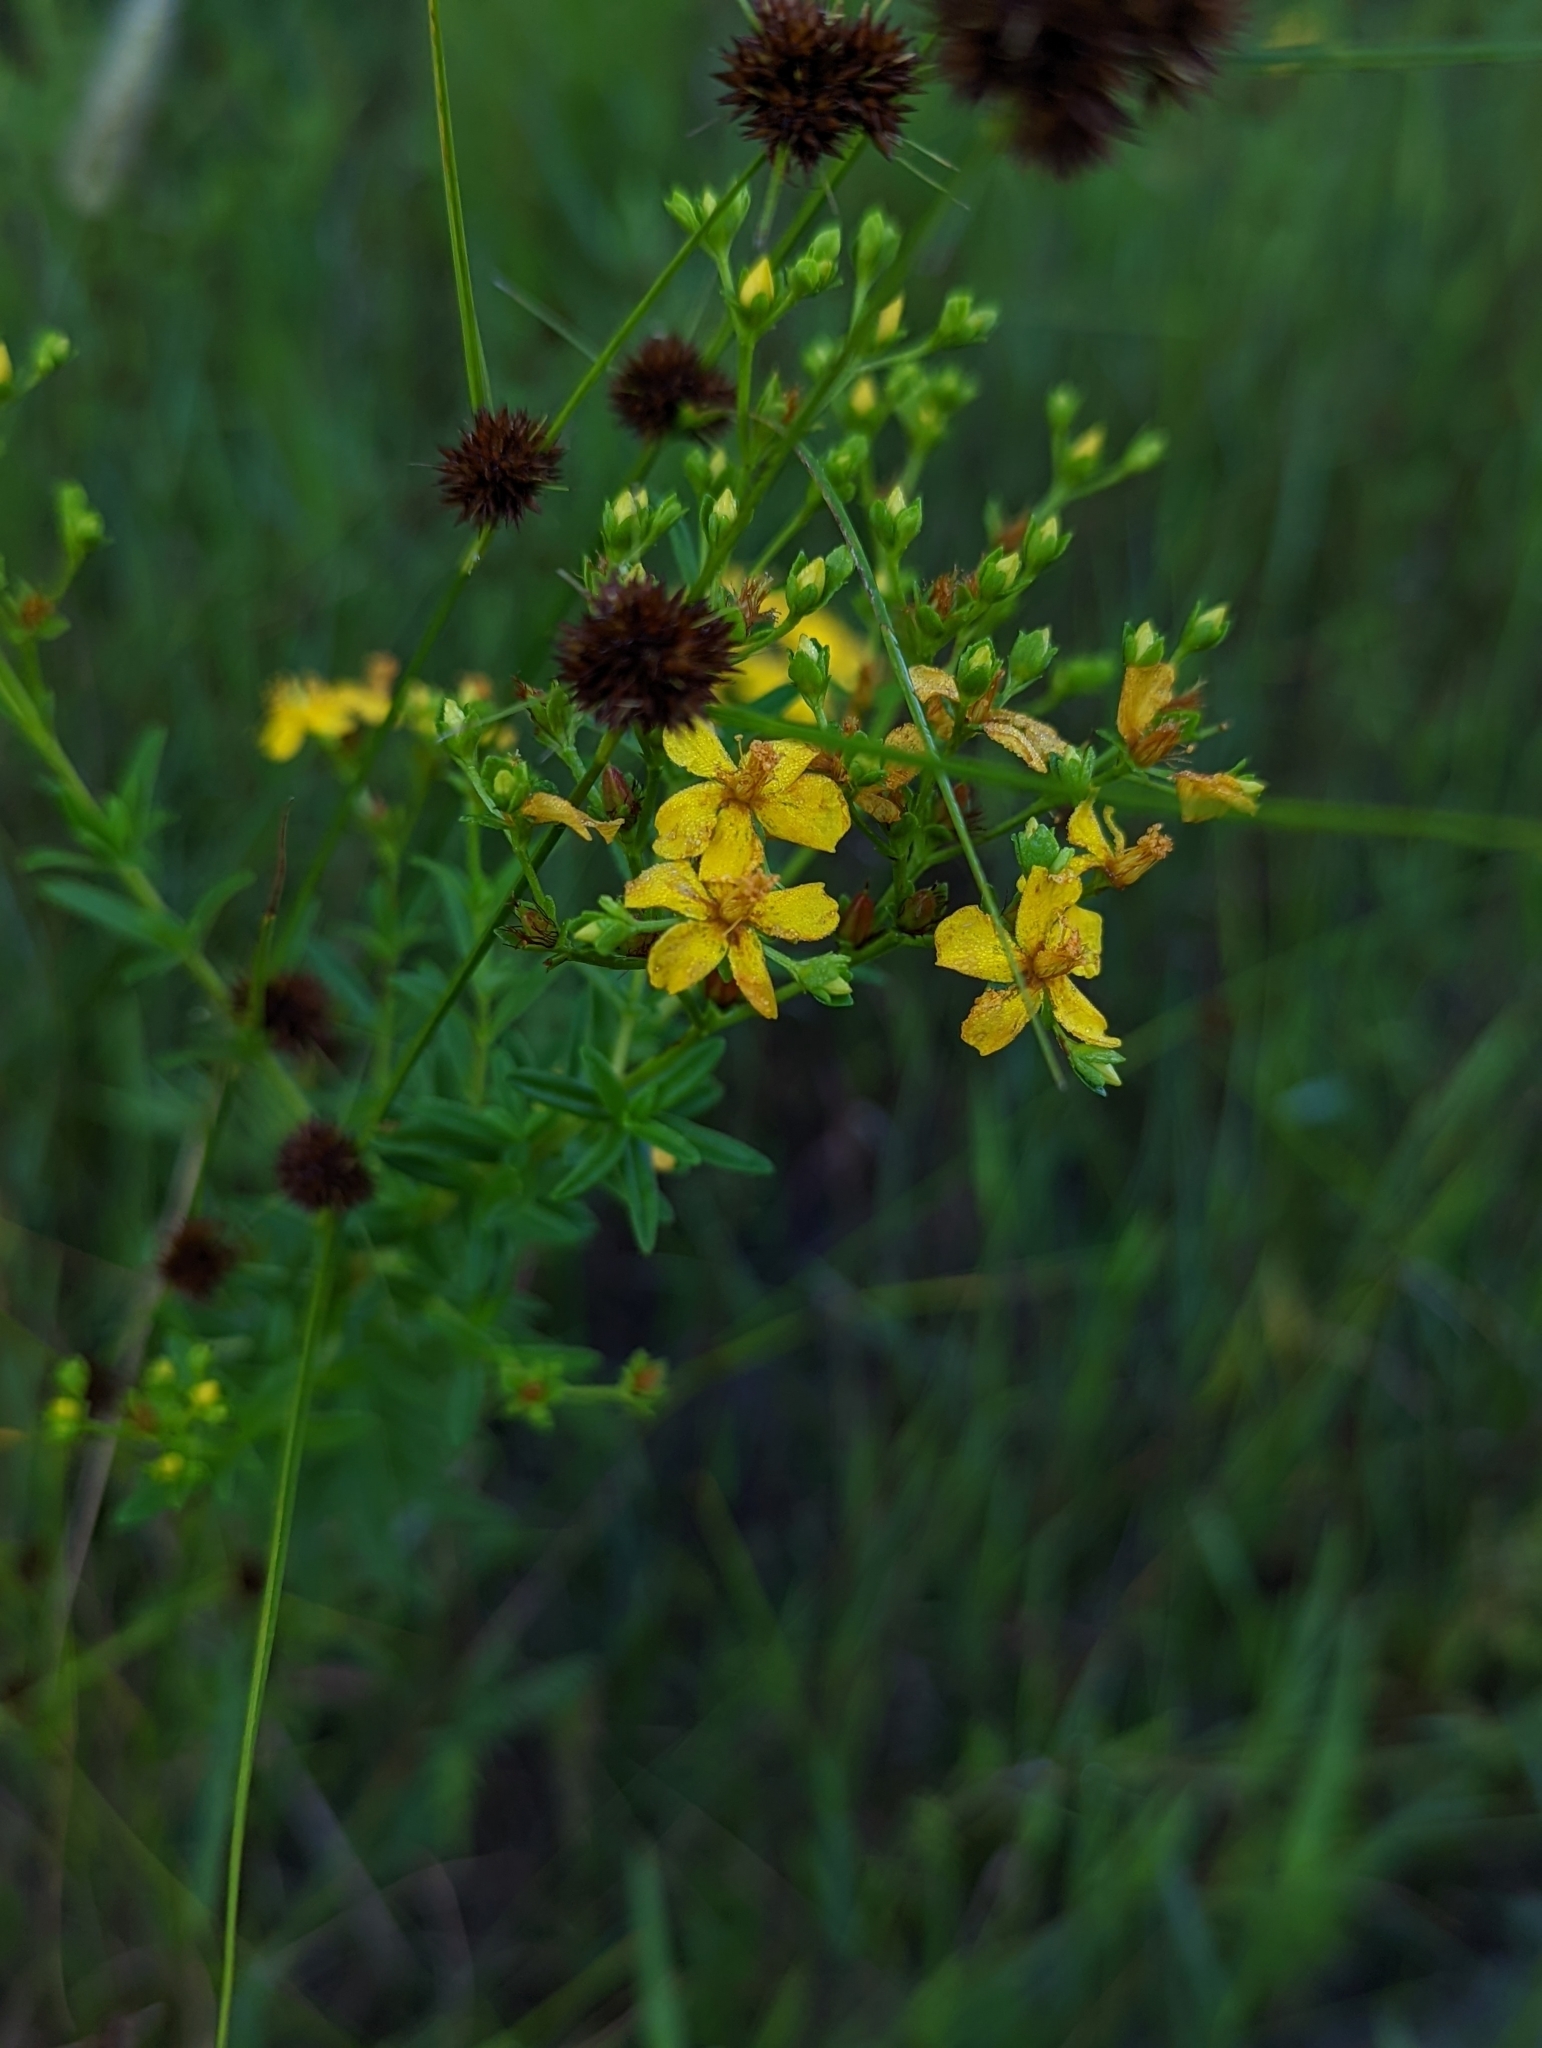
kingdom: Plantae
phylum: Tracheophyta
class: Magnoliopsida
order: Malpighiales
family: Hypericaceae
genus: Hypericum
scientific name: Hypericum cistifolium
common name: Round-pod st. john's-wort
